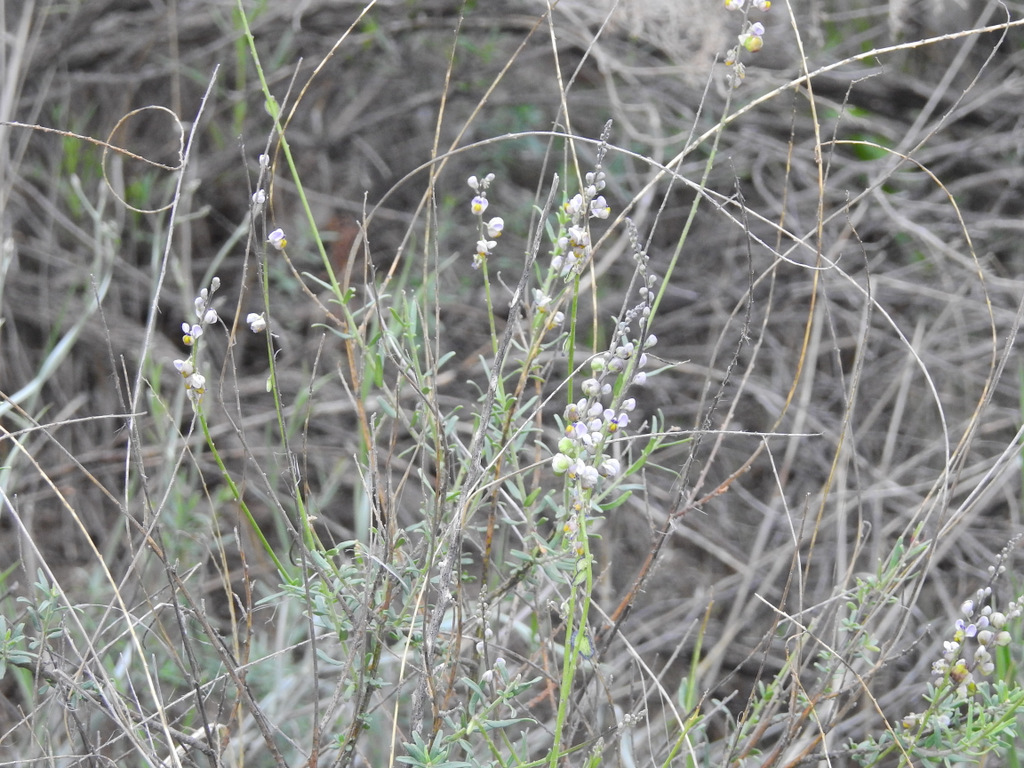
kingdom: Plantae
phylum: Tracheophyta
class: Magnoliopsida
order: Fabales
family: Polygalaceae
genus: Monnina
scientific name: Monnina dictyocarpa
